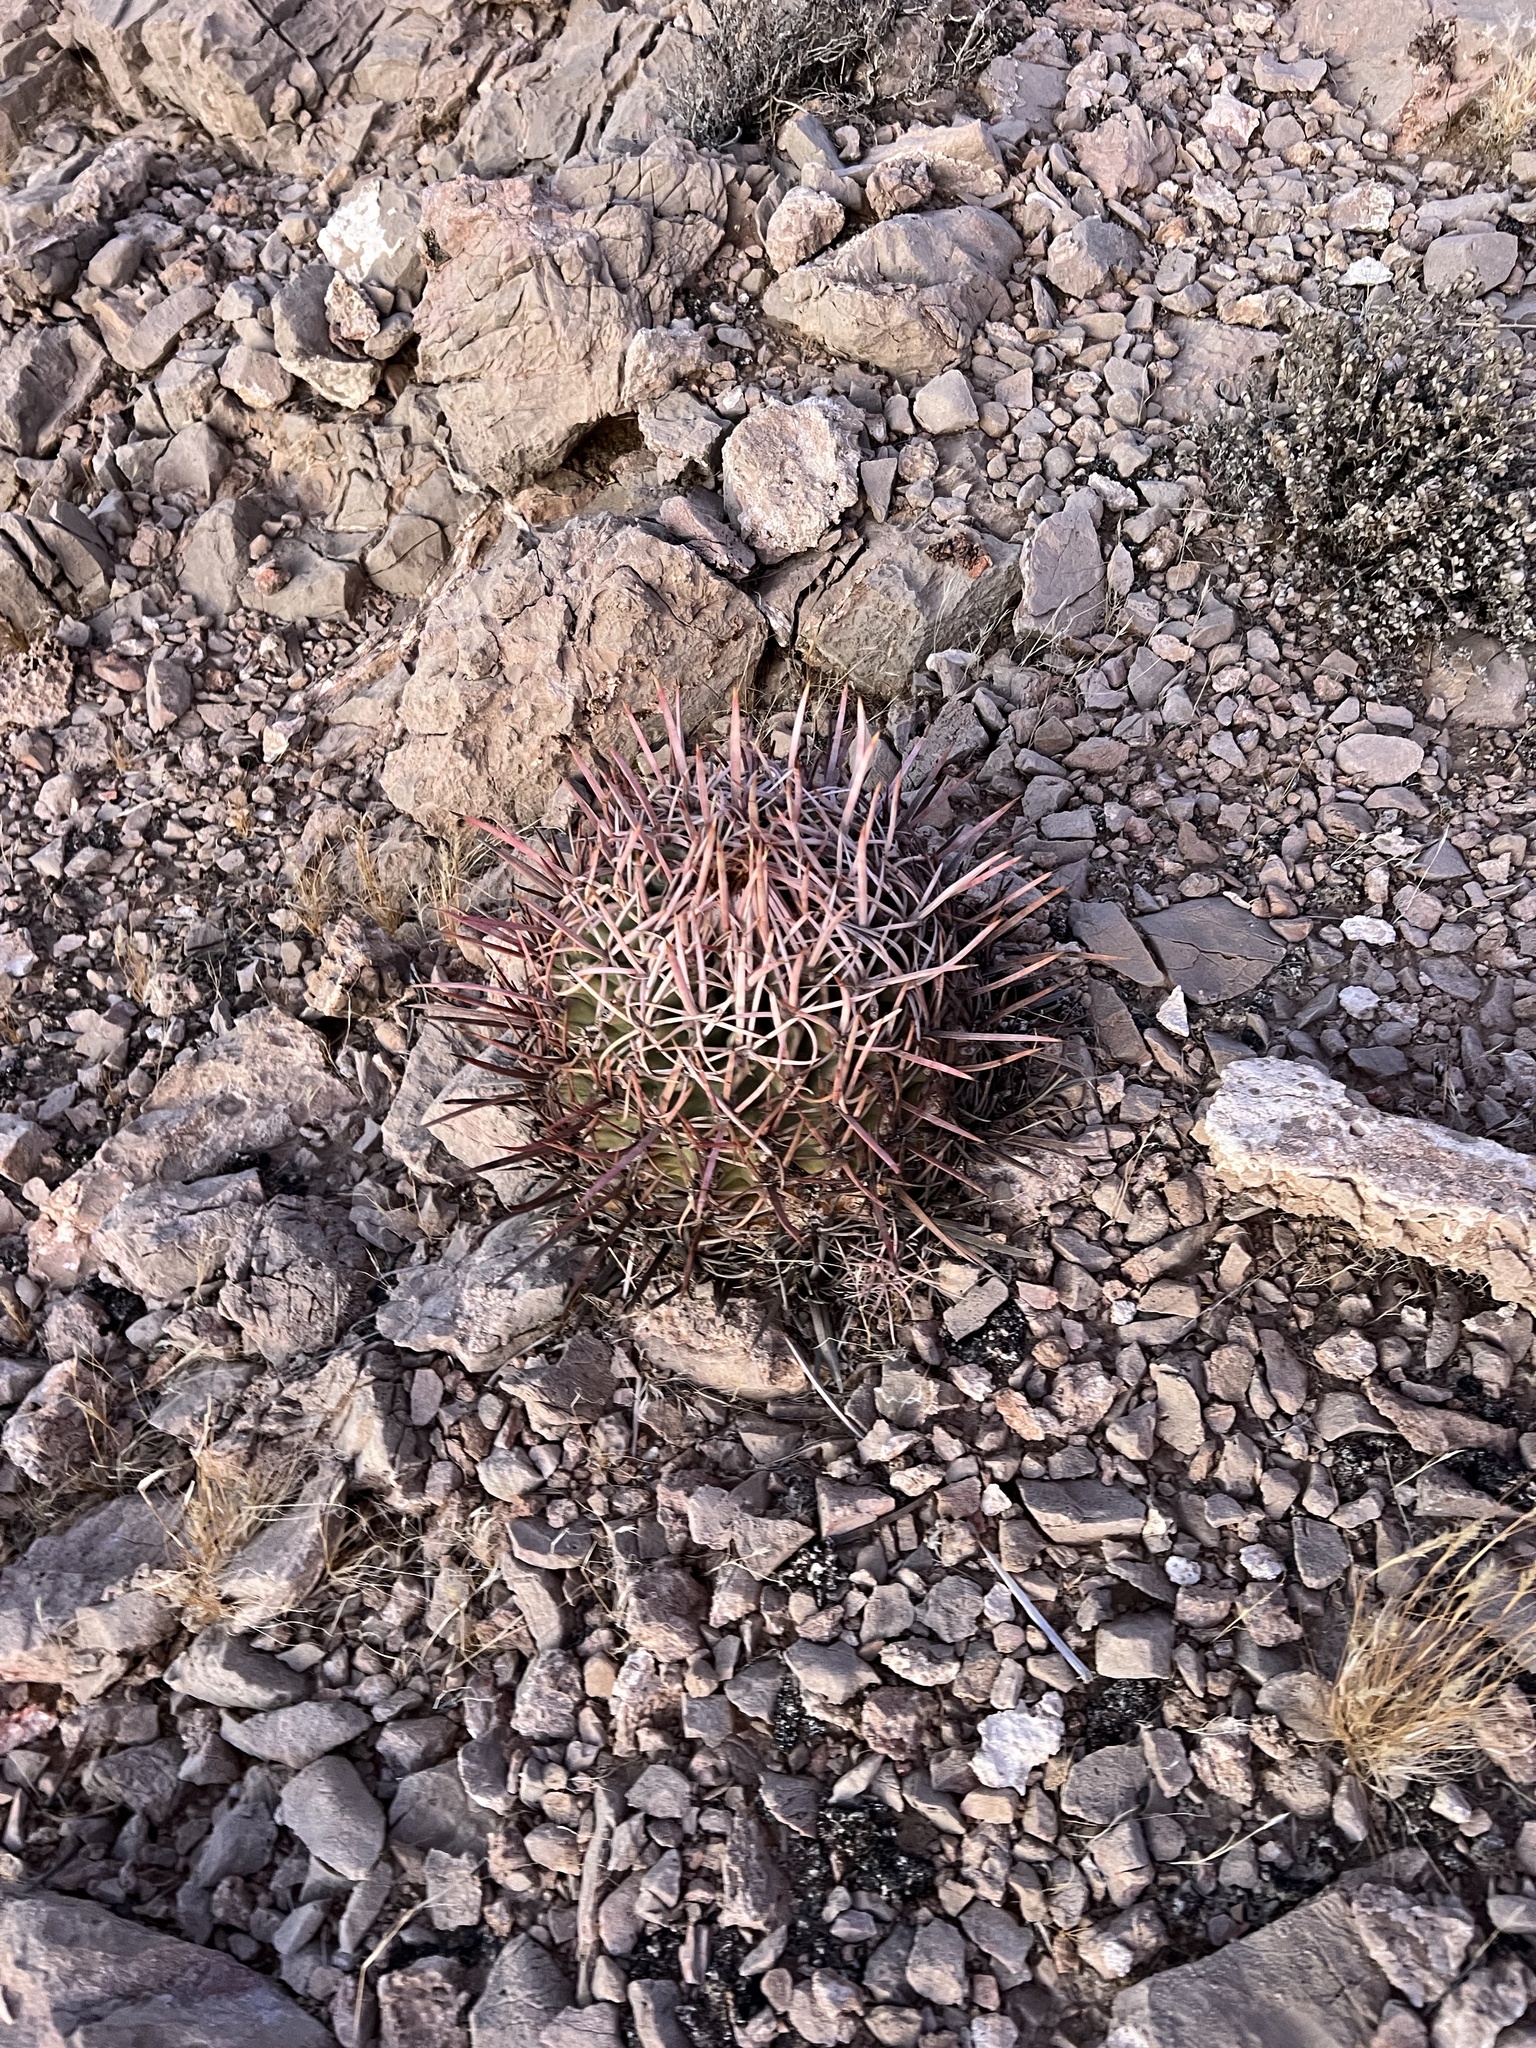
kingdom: Plantae
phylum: Tracheophyta
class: Magnoliopsida
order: Caryophyllales
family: Cactaceae
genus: Echinocactus
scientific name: Echinocactus polycephalus
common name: Cottontop cactus
